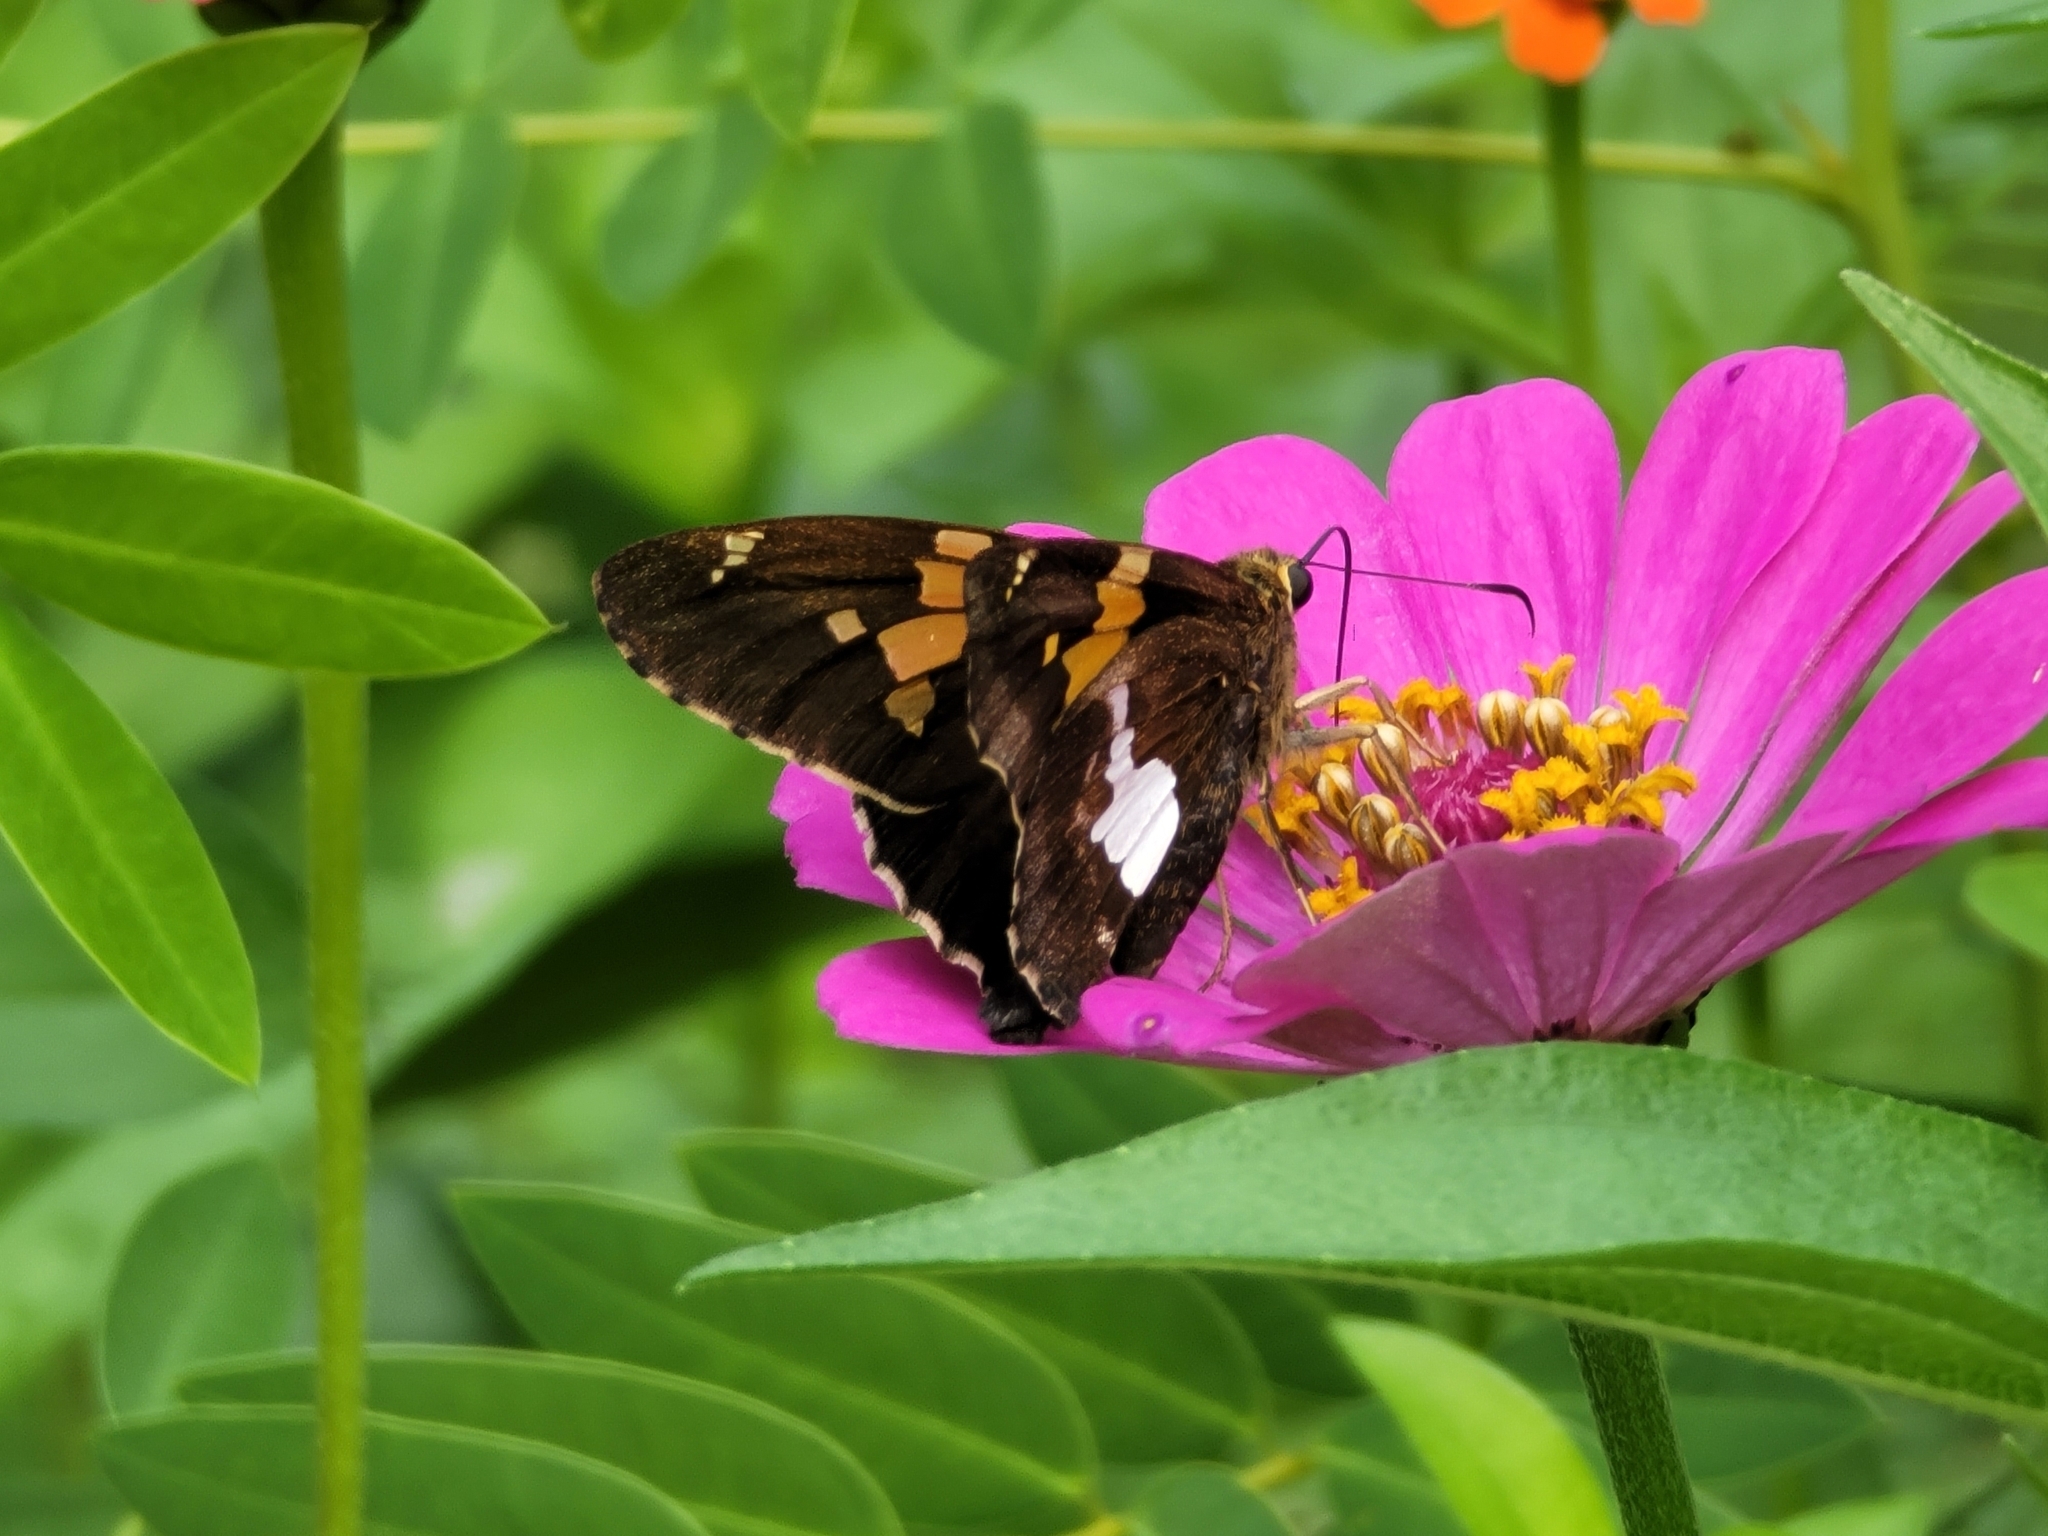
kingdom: Animalia
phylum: Arthropoda
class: Insecta
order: Lepidoptera
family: Hesperiidae
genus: Epargyreus
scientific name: Epargyreus clarus
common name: Silver-spotted skipper
